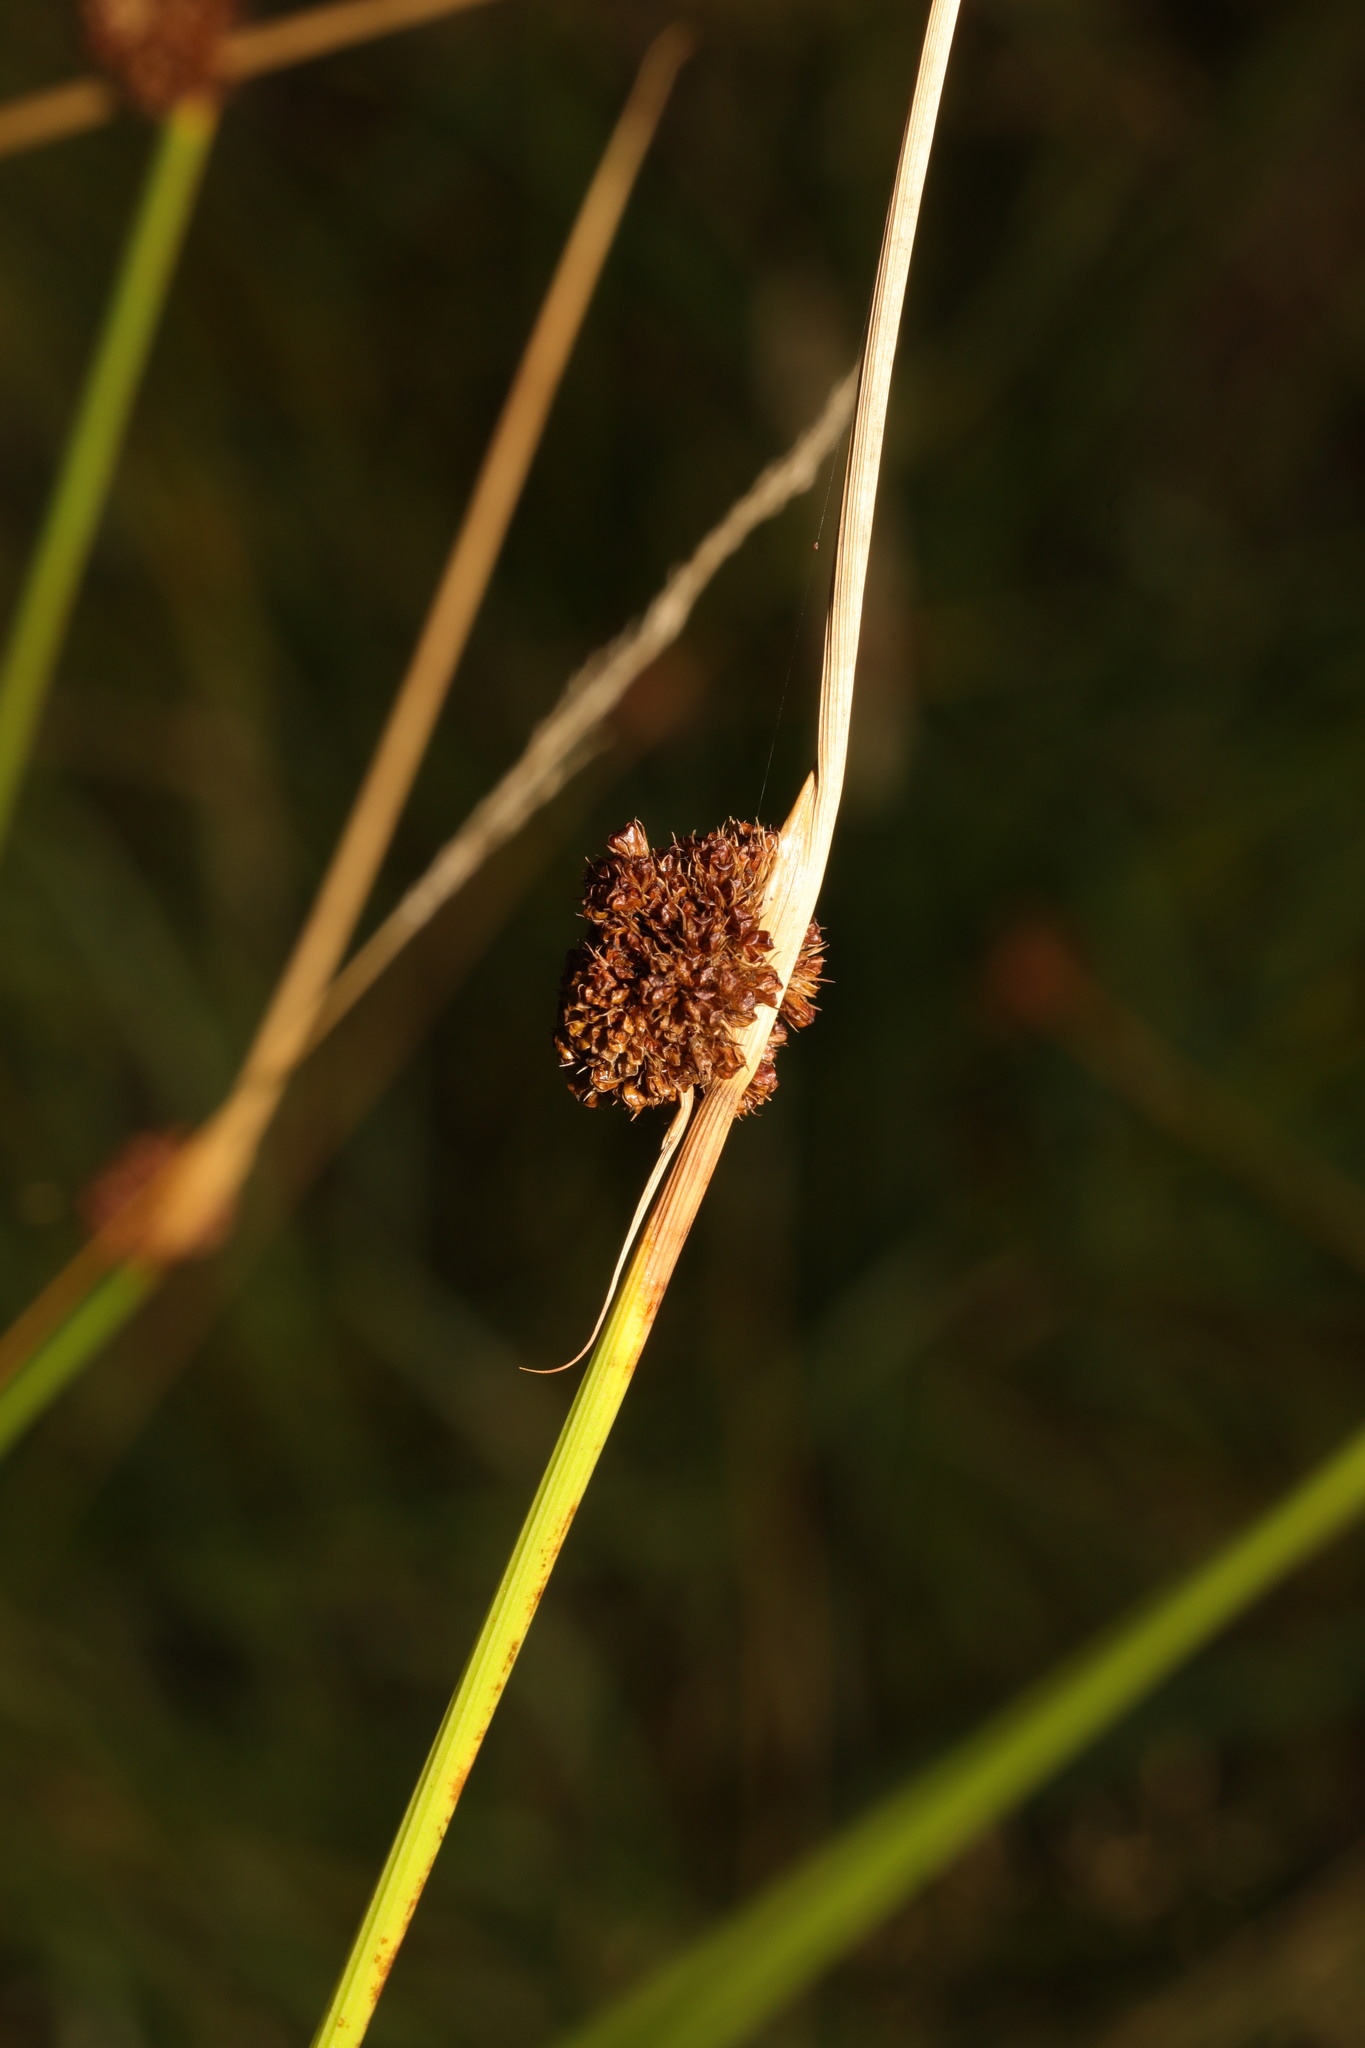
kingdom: Plantae
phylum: Tracheophyta
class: Liliopsida
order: Poales
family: Juncaceae
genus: Juncus
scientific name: Juncus conglomeratus
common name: Compact rush
